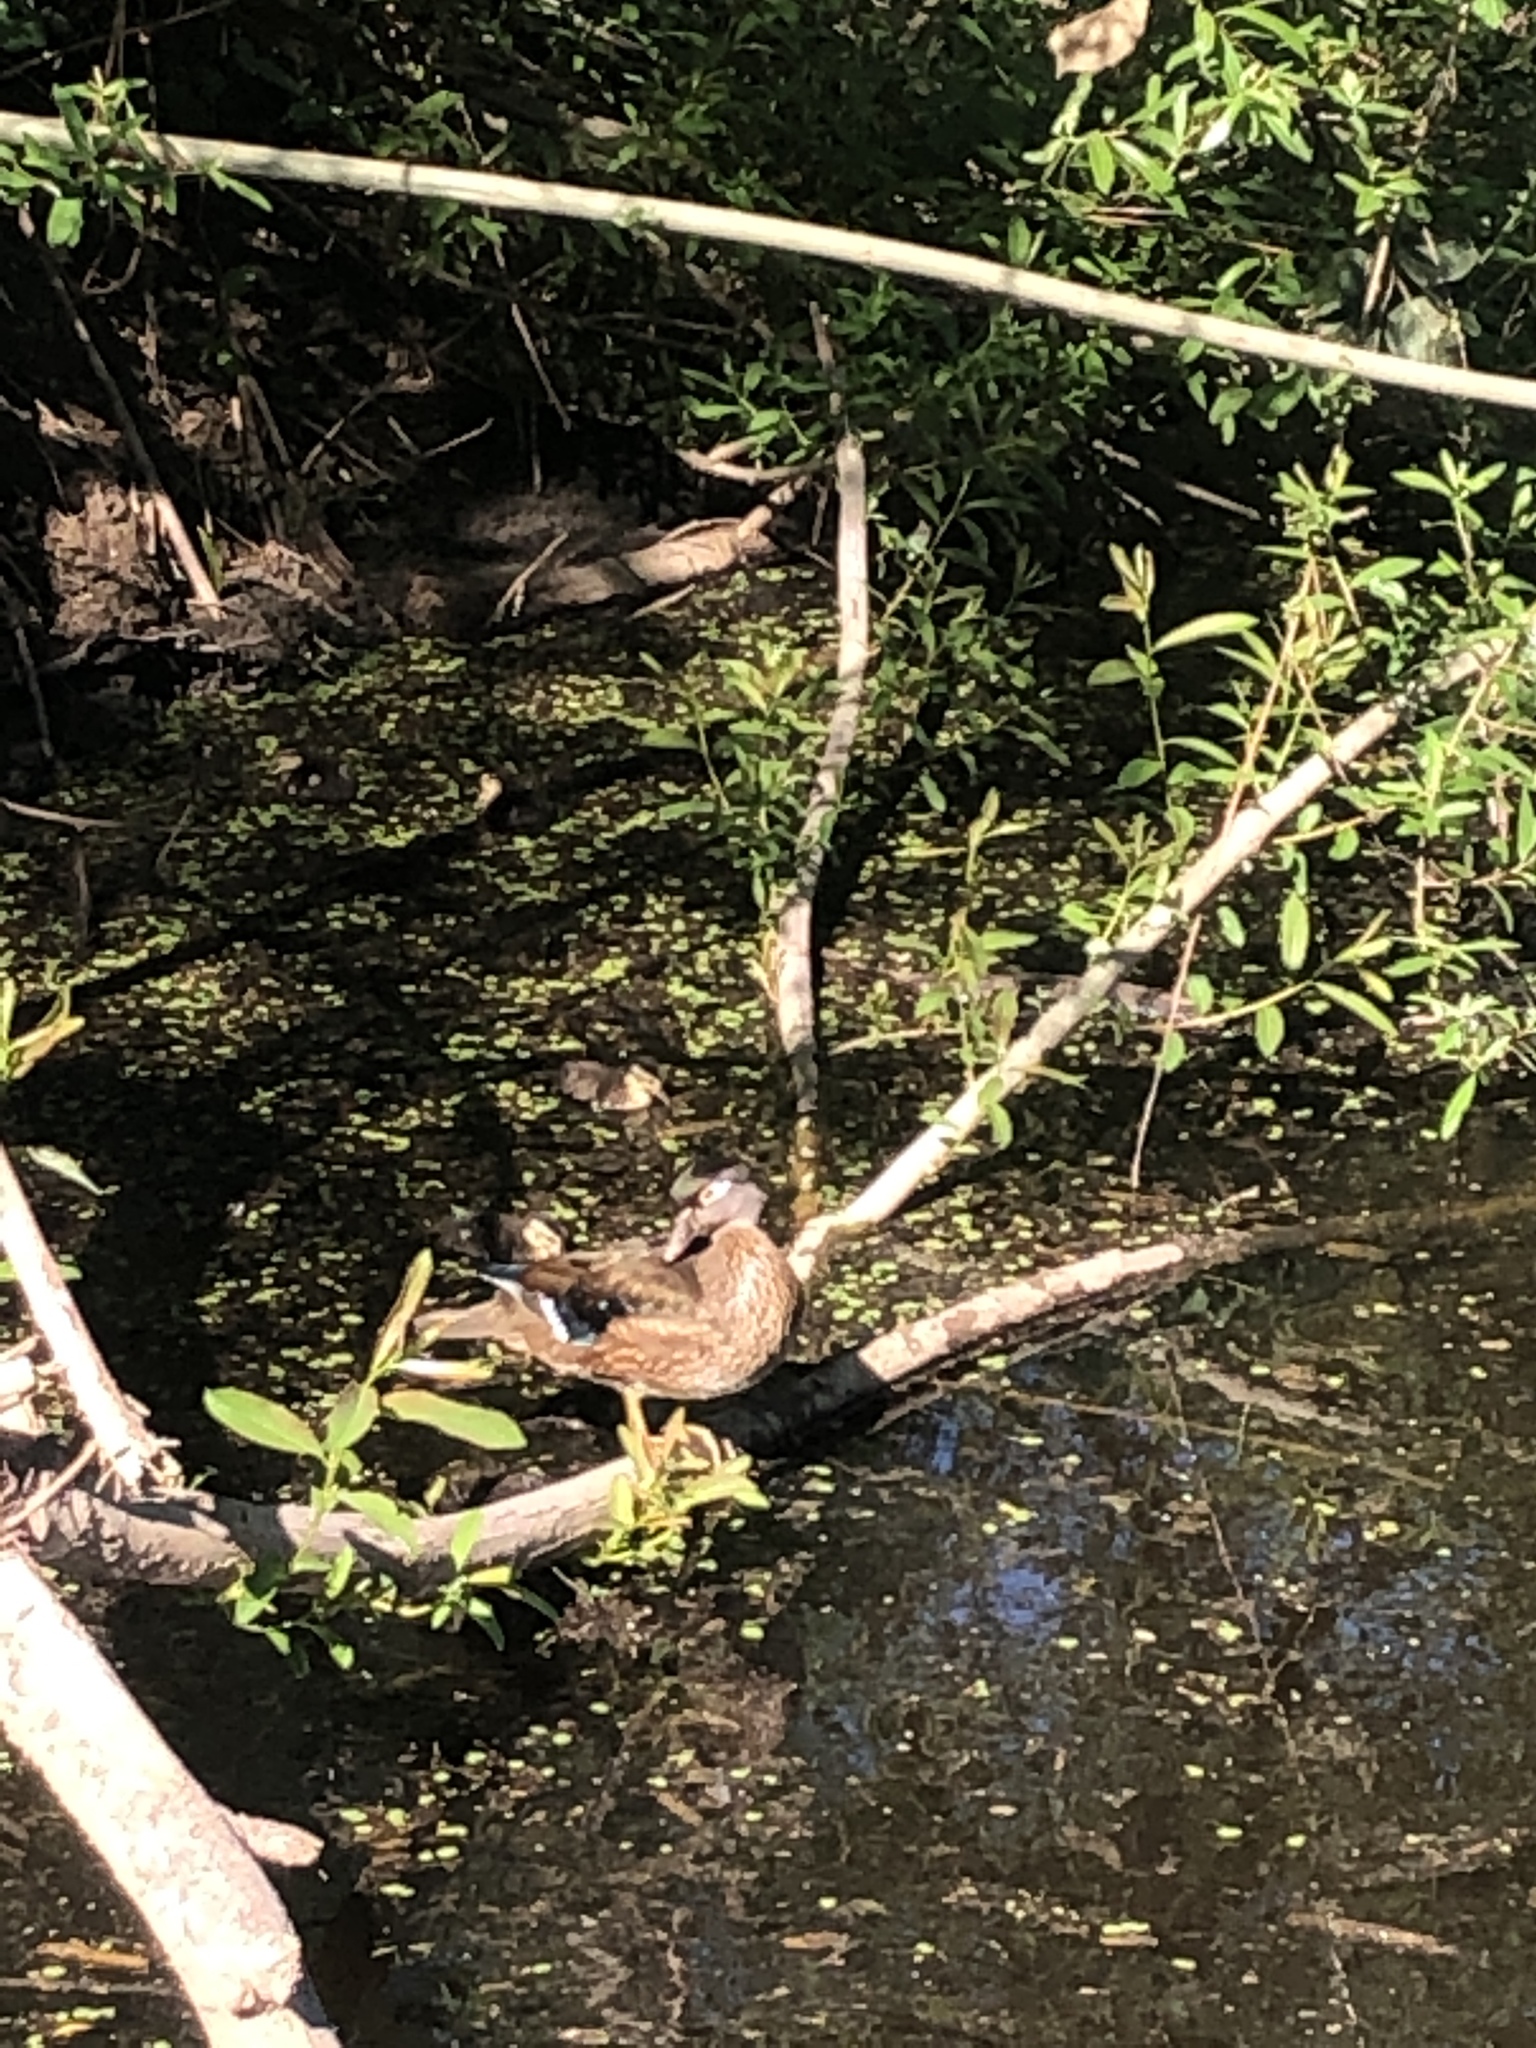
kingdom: Animalia
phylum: Chordata
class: Aves
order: Anseriformes
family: Anatidae
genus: Aix
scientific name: Aix sponsa
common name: Wood duck
